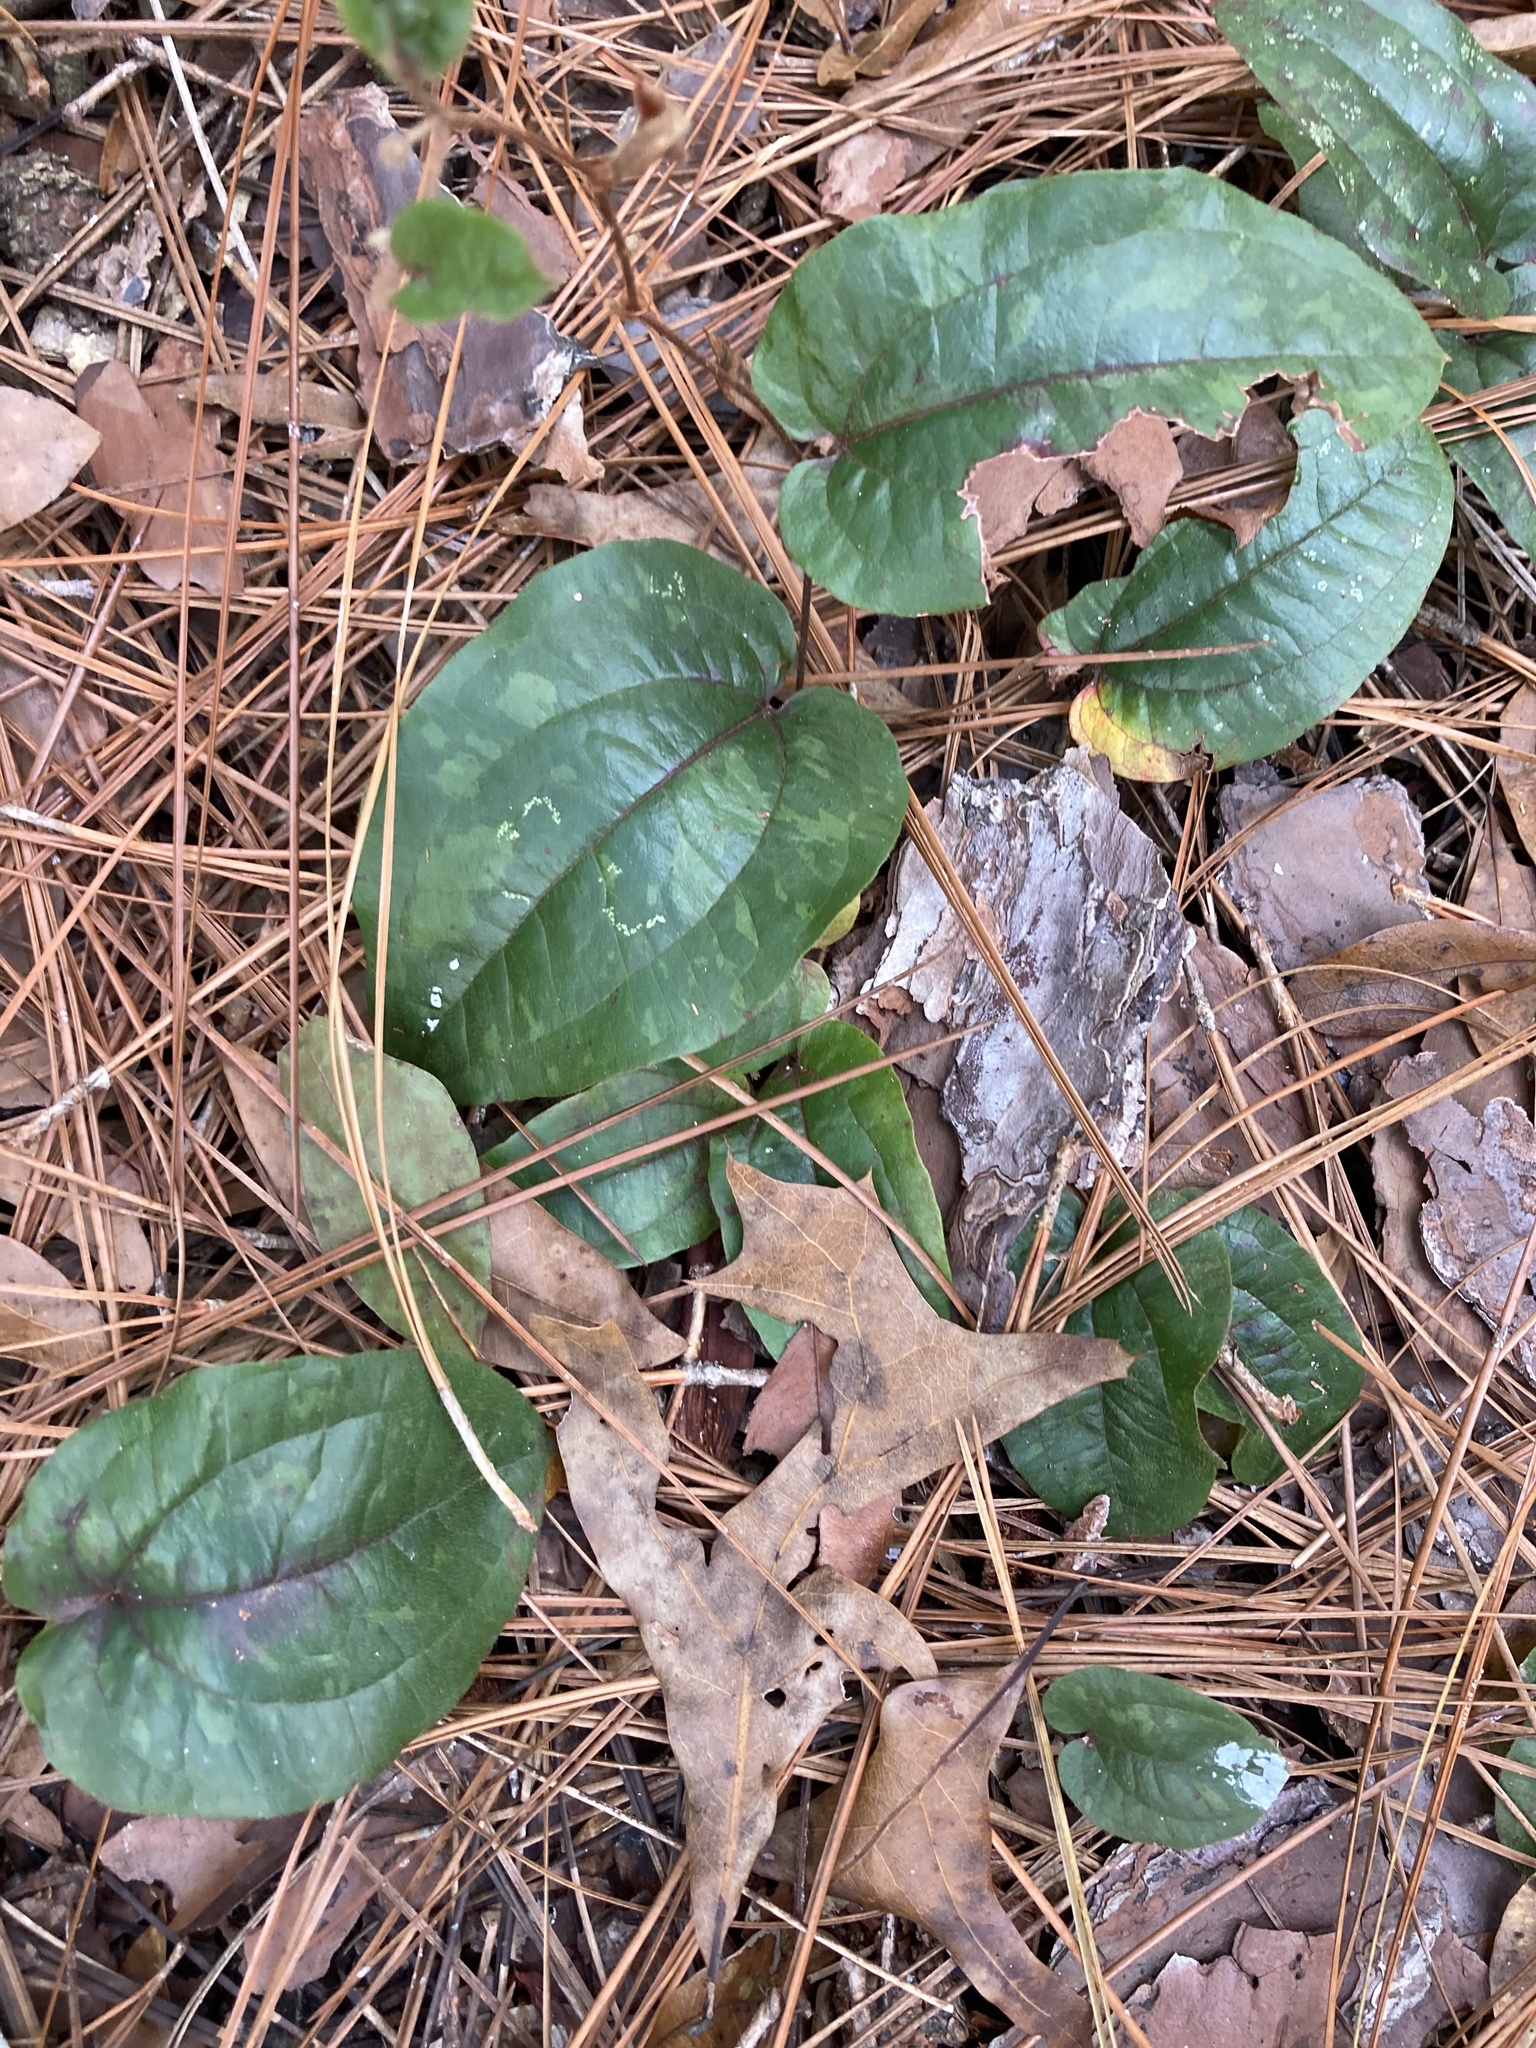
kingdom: Plantae
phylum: Tracheophyta
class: Liliopsida
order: Liliales
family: Smilacaceae
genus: Smilax
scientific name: Smilax pumila
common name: Sarsaparilla-vine
